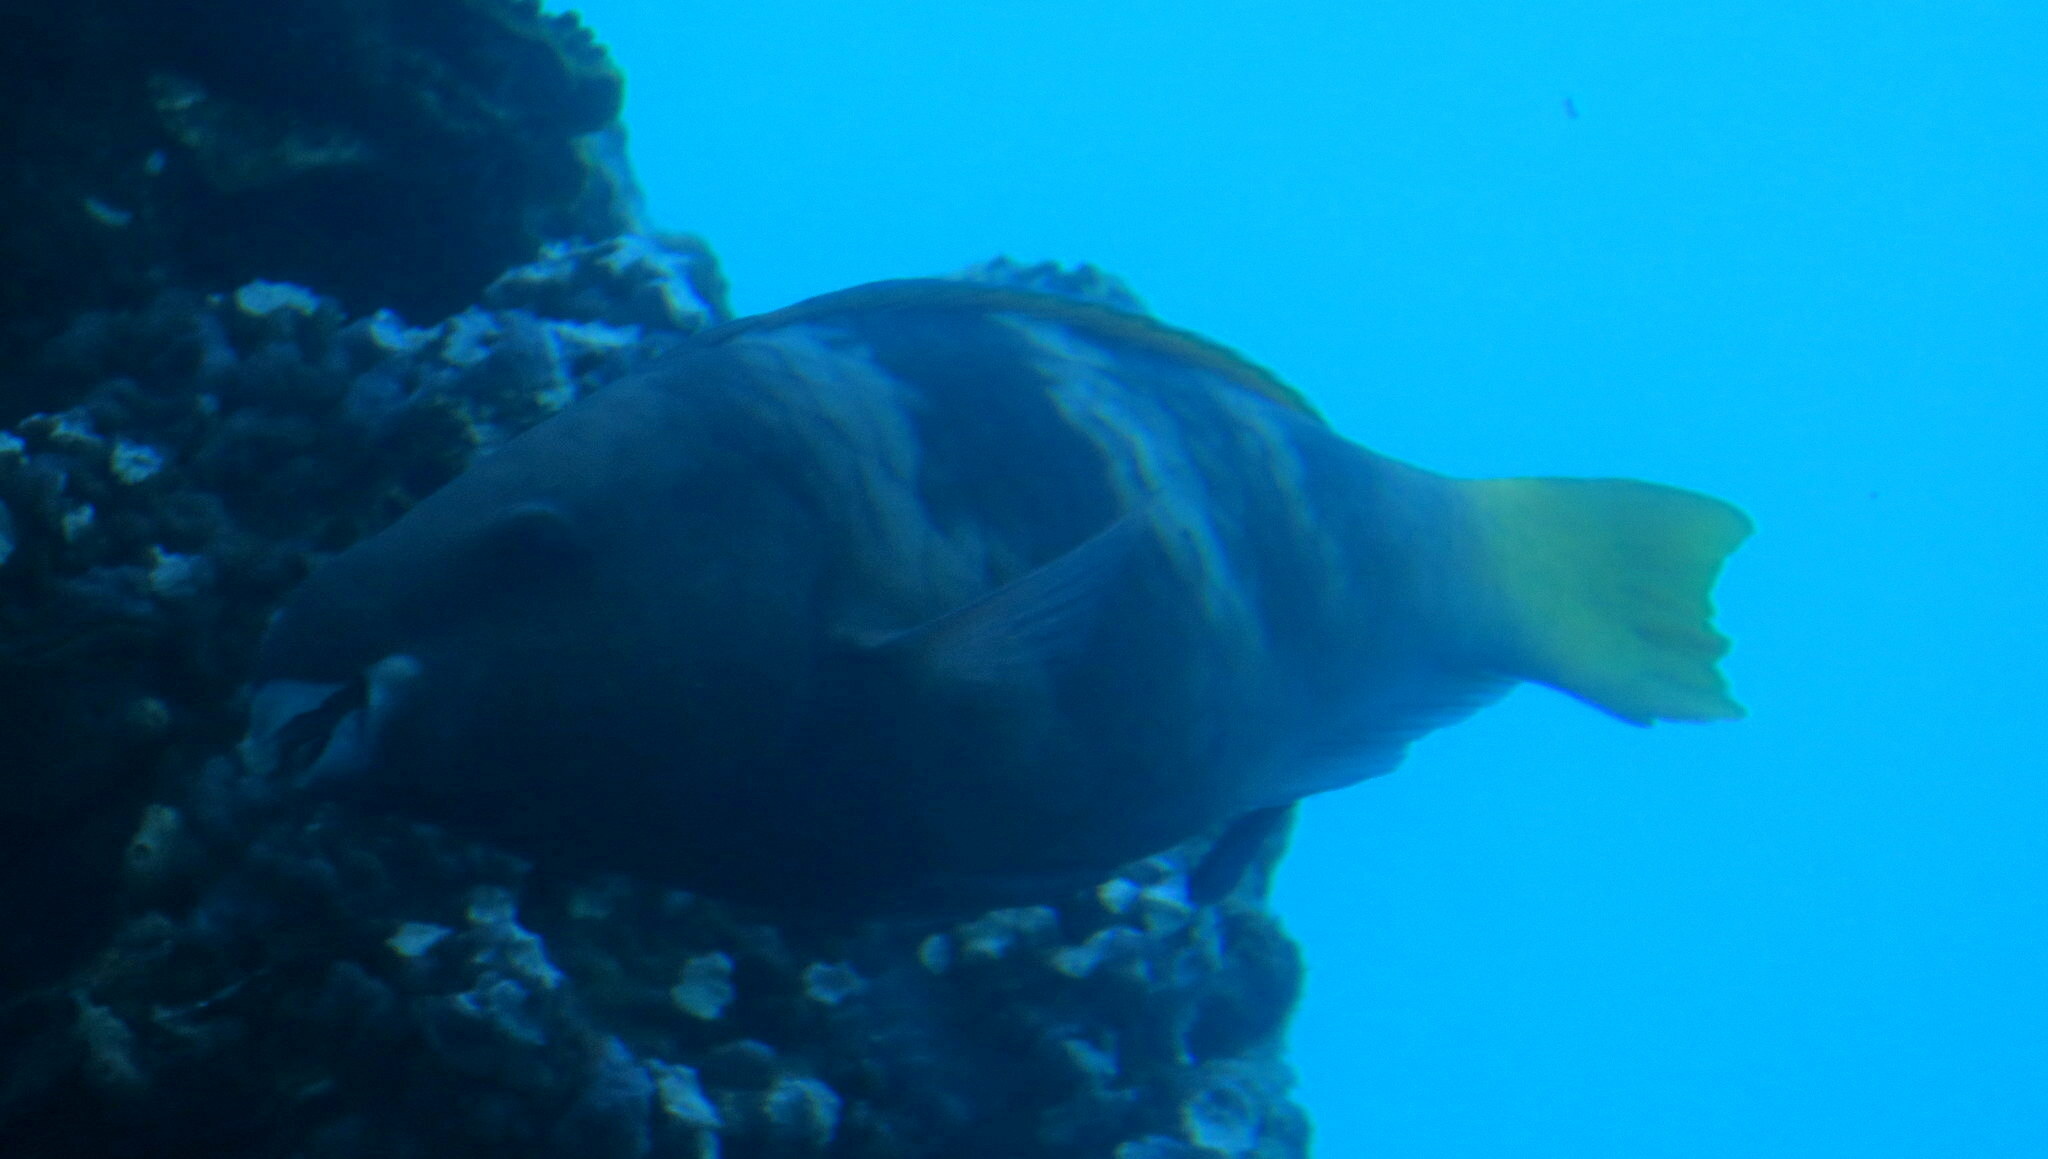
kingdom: Animalia
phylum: Chordata
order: Perciformes
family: Scaridae
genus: Scarus
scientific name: Scarus ferrugineus
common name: Rusty parrotfish
